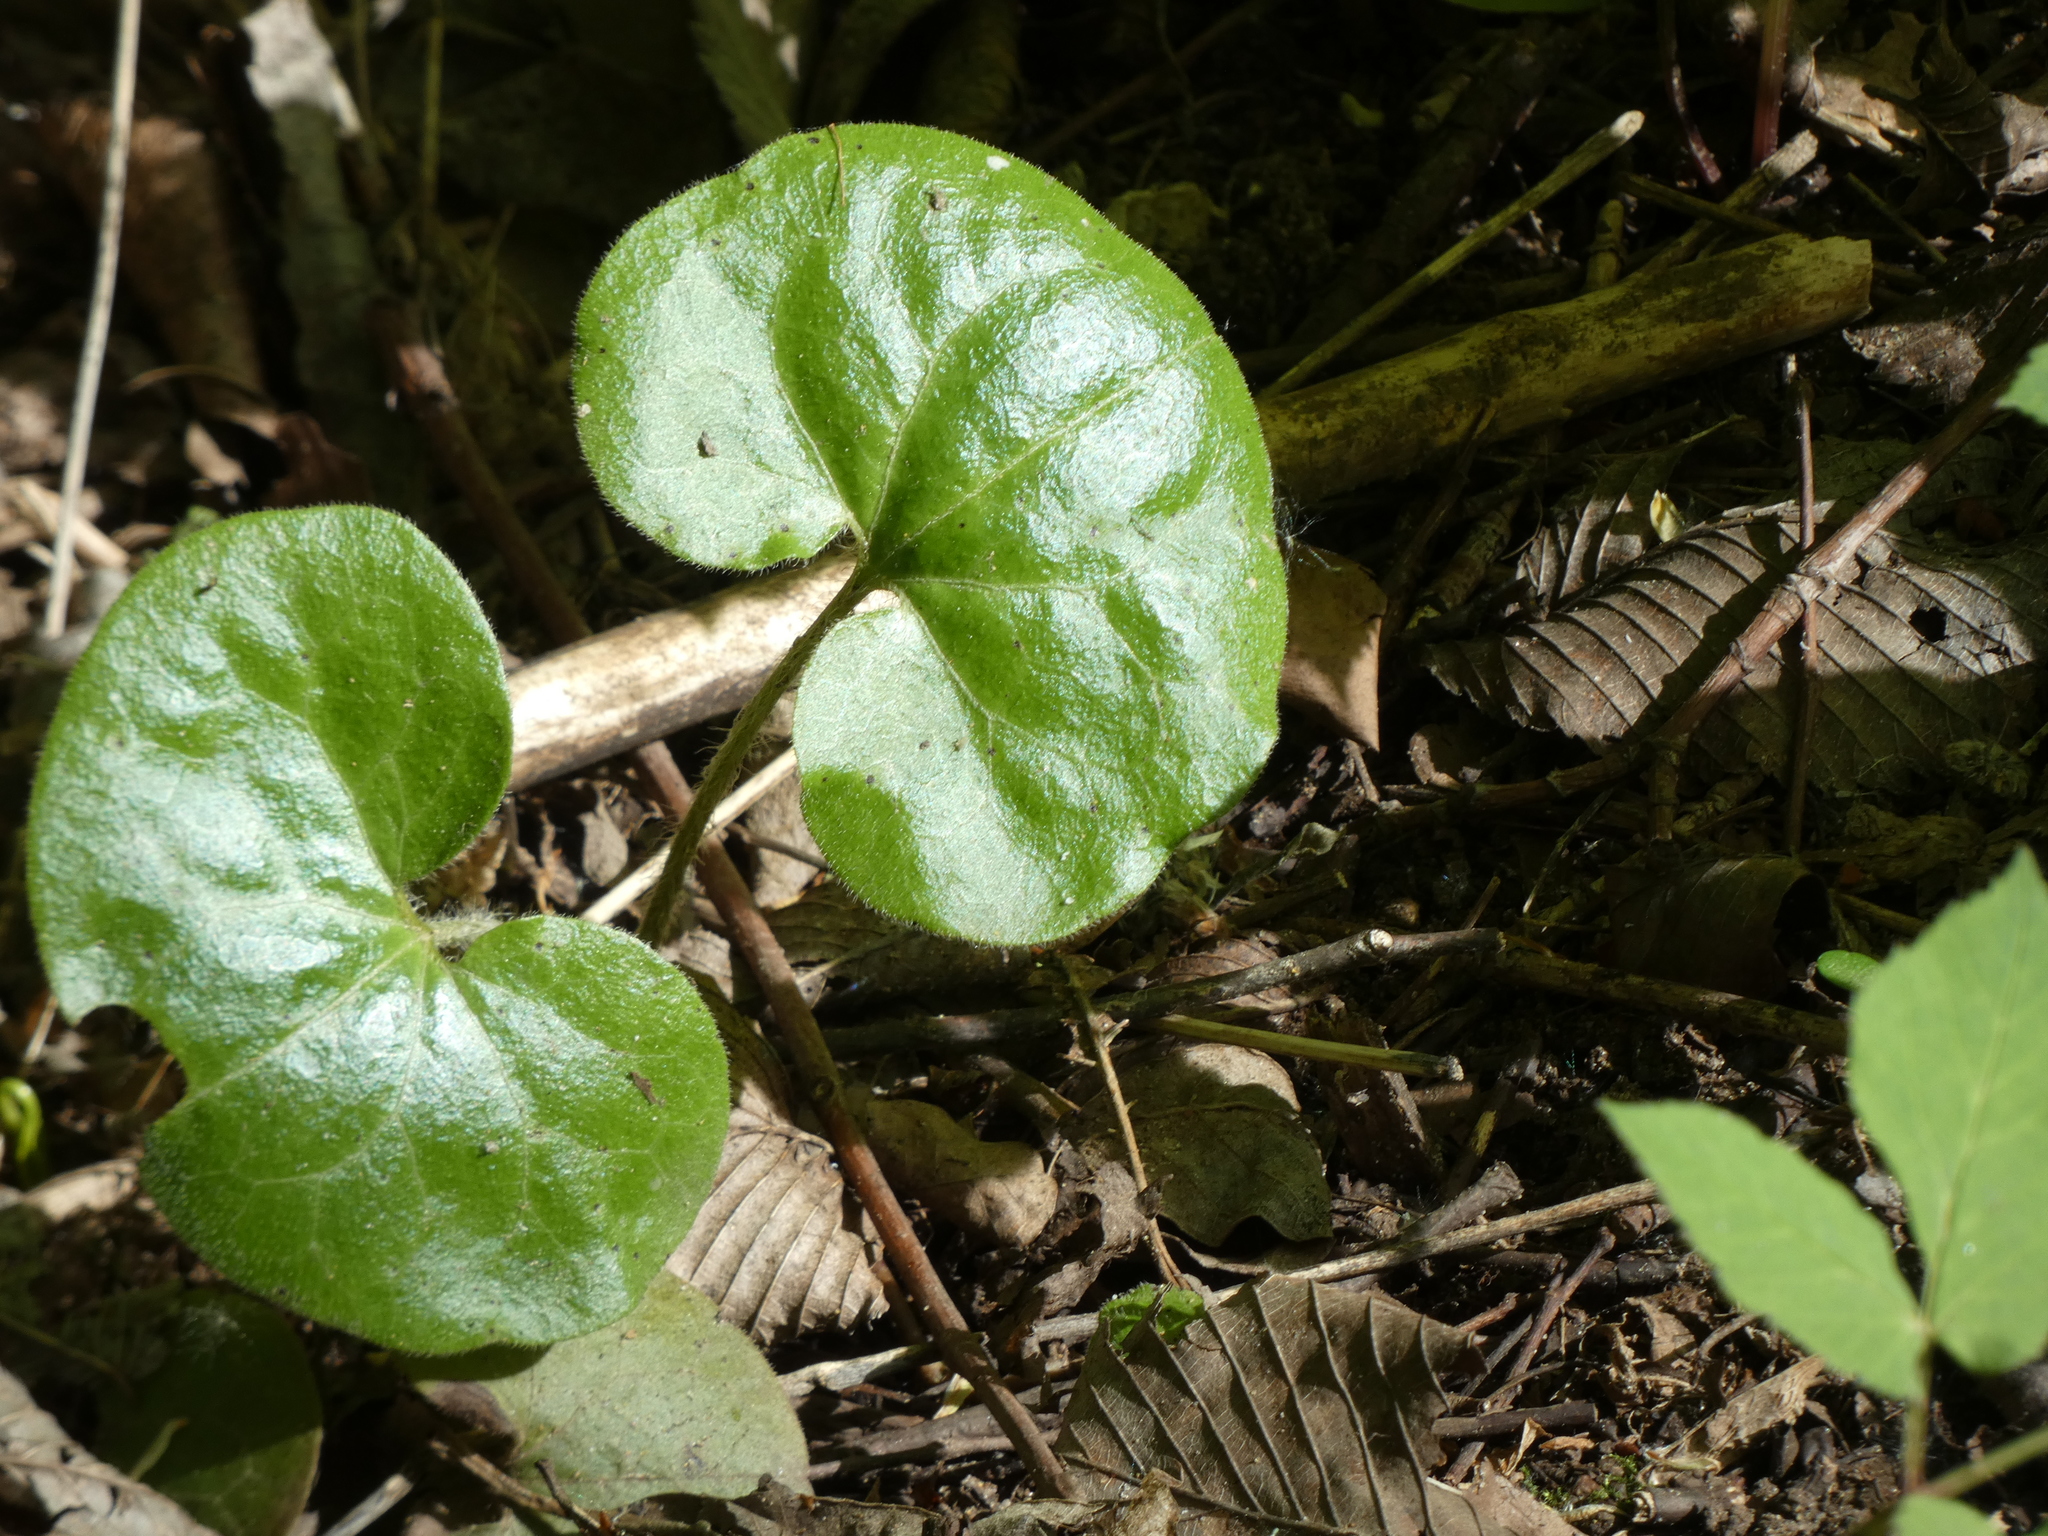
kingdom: Plantae
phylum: Tracheophyta
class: Magnoliopsida
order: Piperales
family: Aristolochiaceae
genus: Asarum
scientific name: Asarum europaeum
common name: Asarabacca
